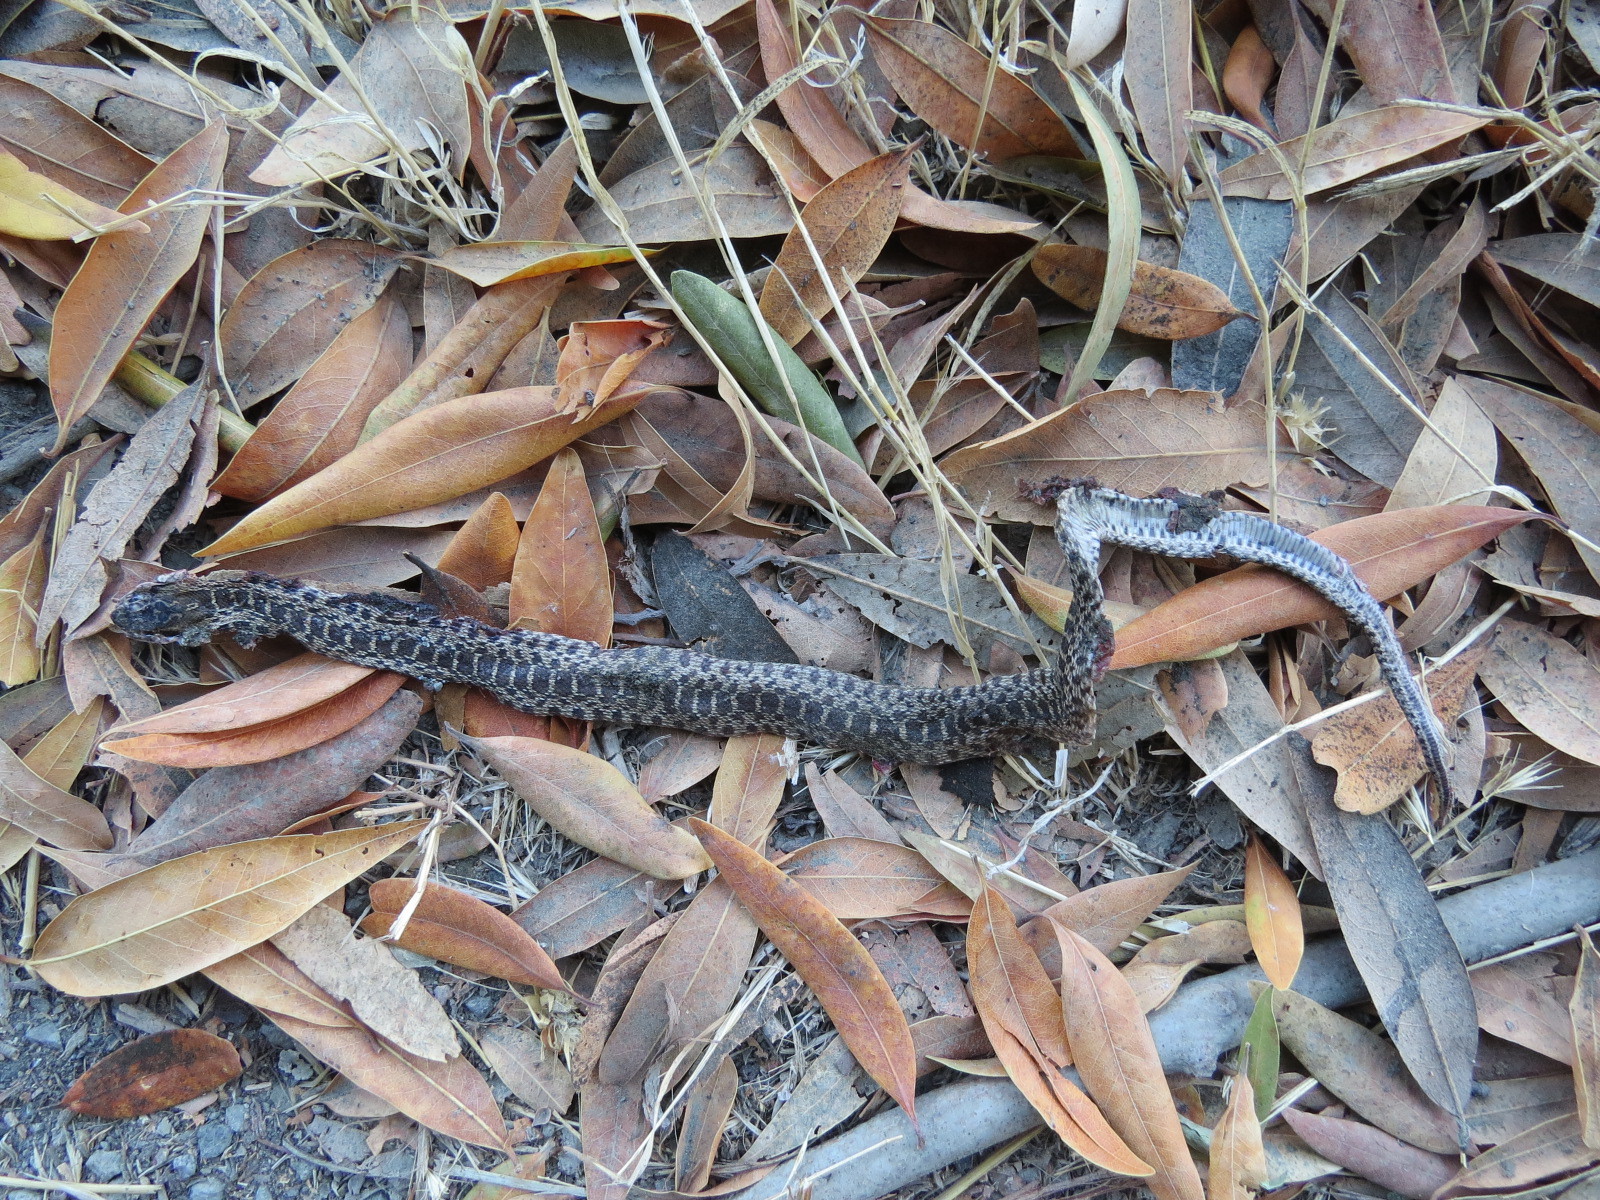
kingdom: Animalia
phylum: Chordata
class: Squamata
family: Colubridae
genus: Pituophis
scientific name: Pituophis catenifer
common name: Gopher snake
